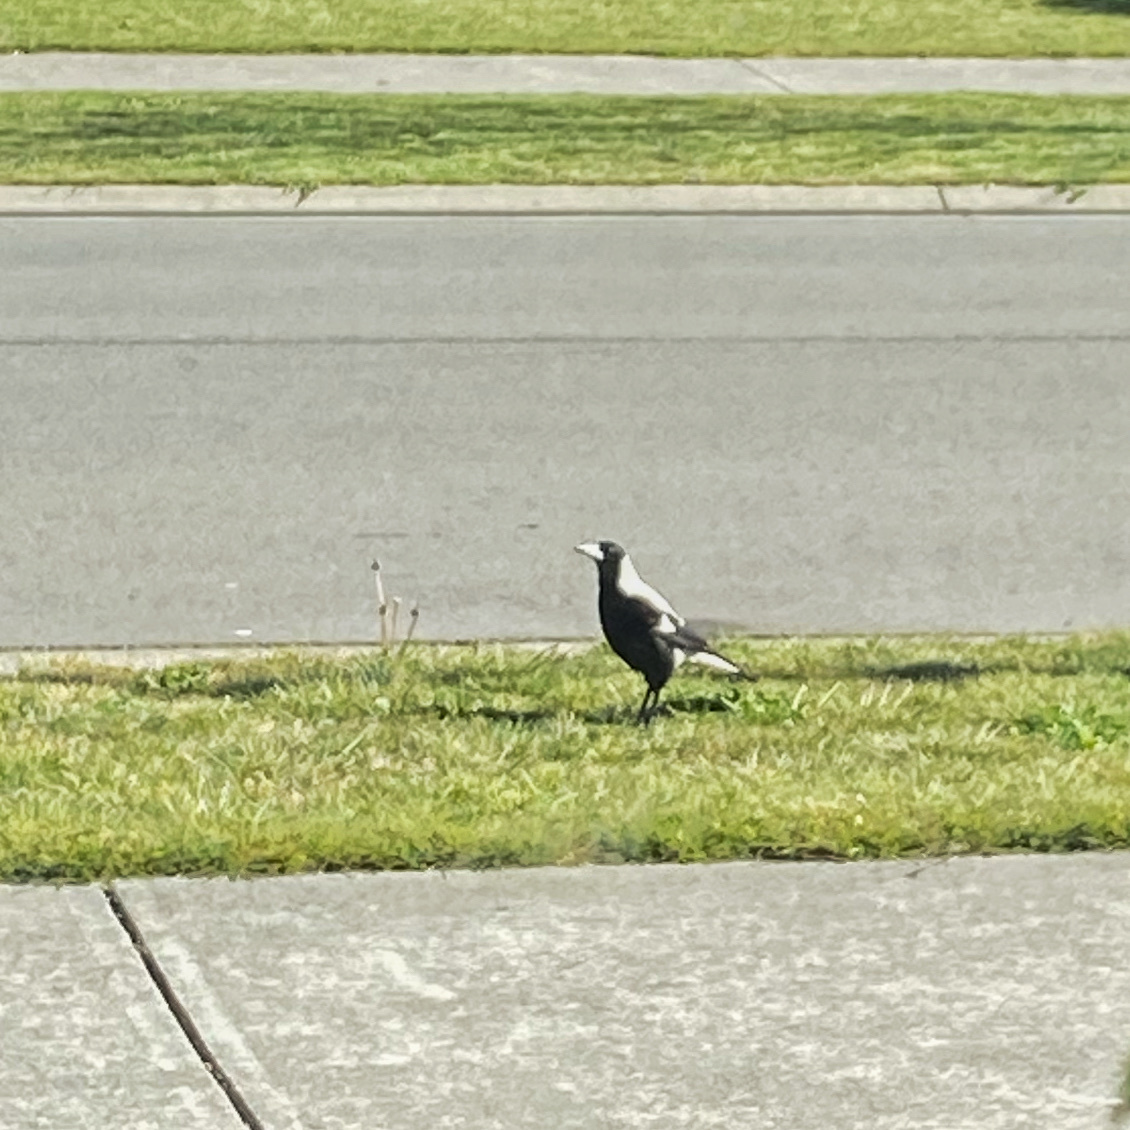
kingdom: Animalia
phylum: Chordata
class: Aves
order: Passeriformes
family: Cracticidae
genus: Gymnorhina
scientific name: Gymnorhina tibicen
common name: Australian magpie
